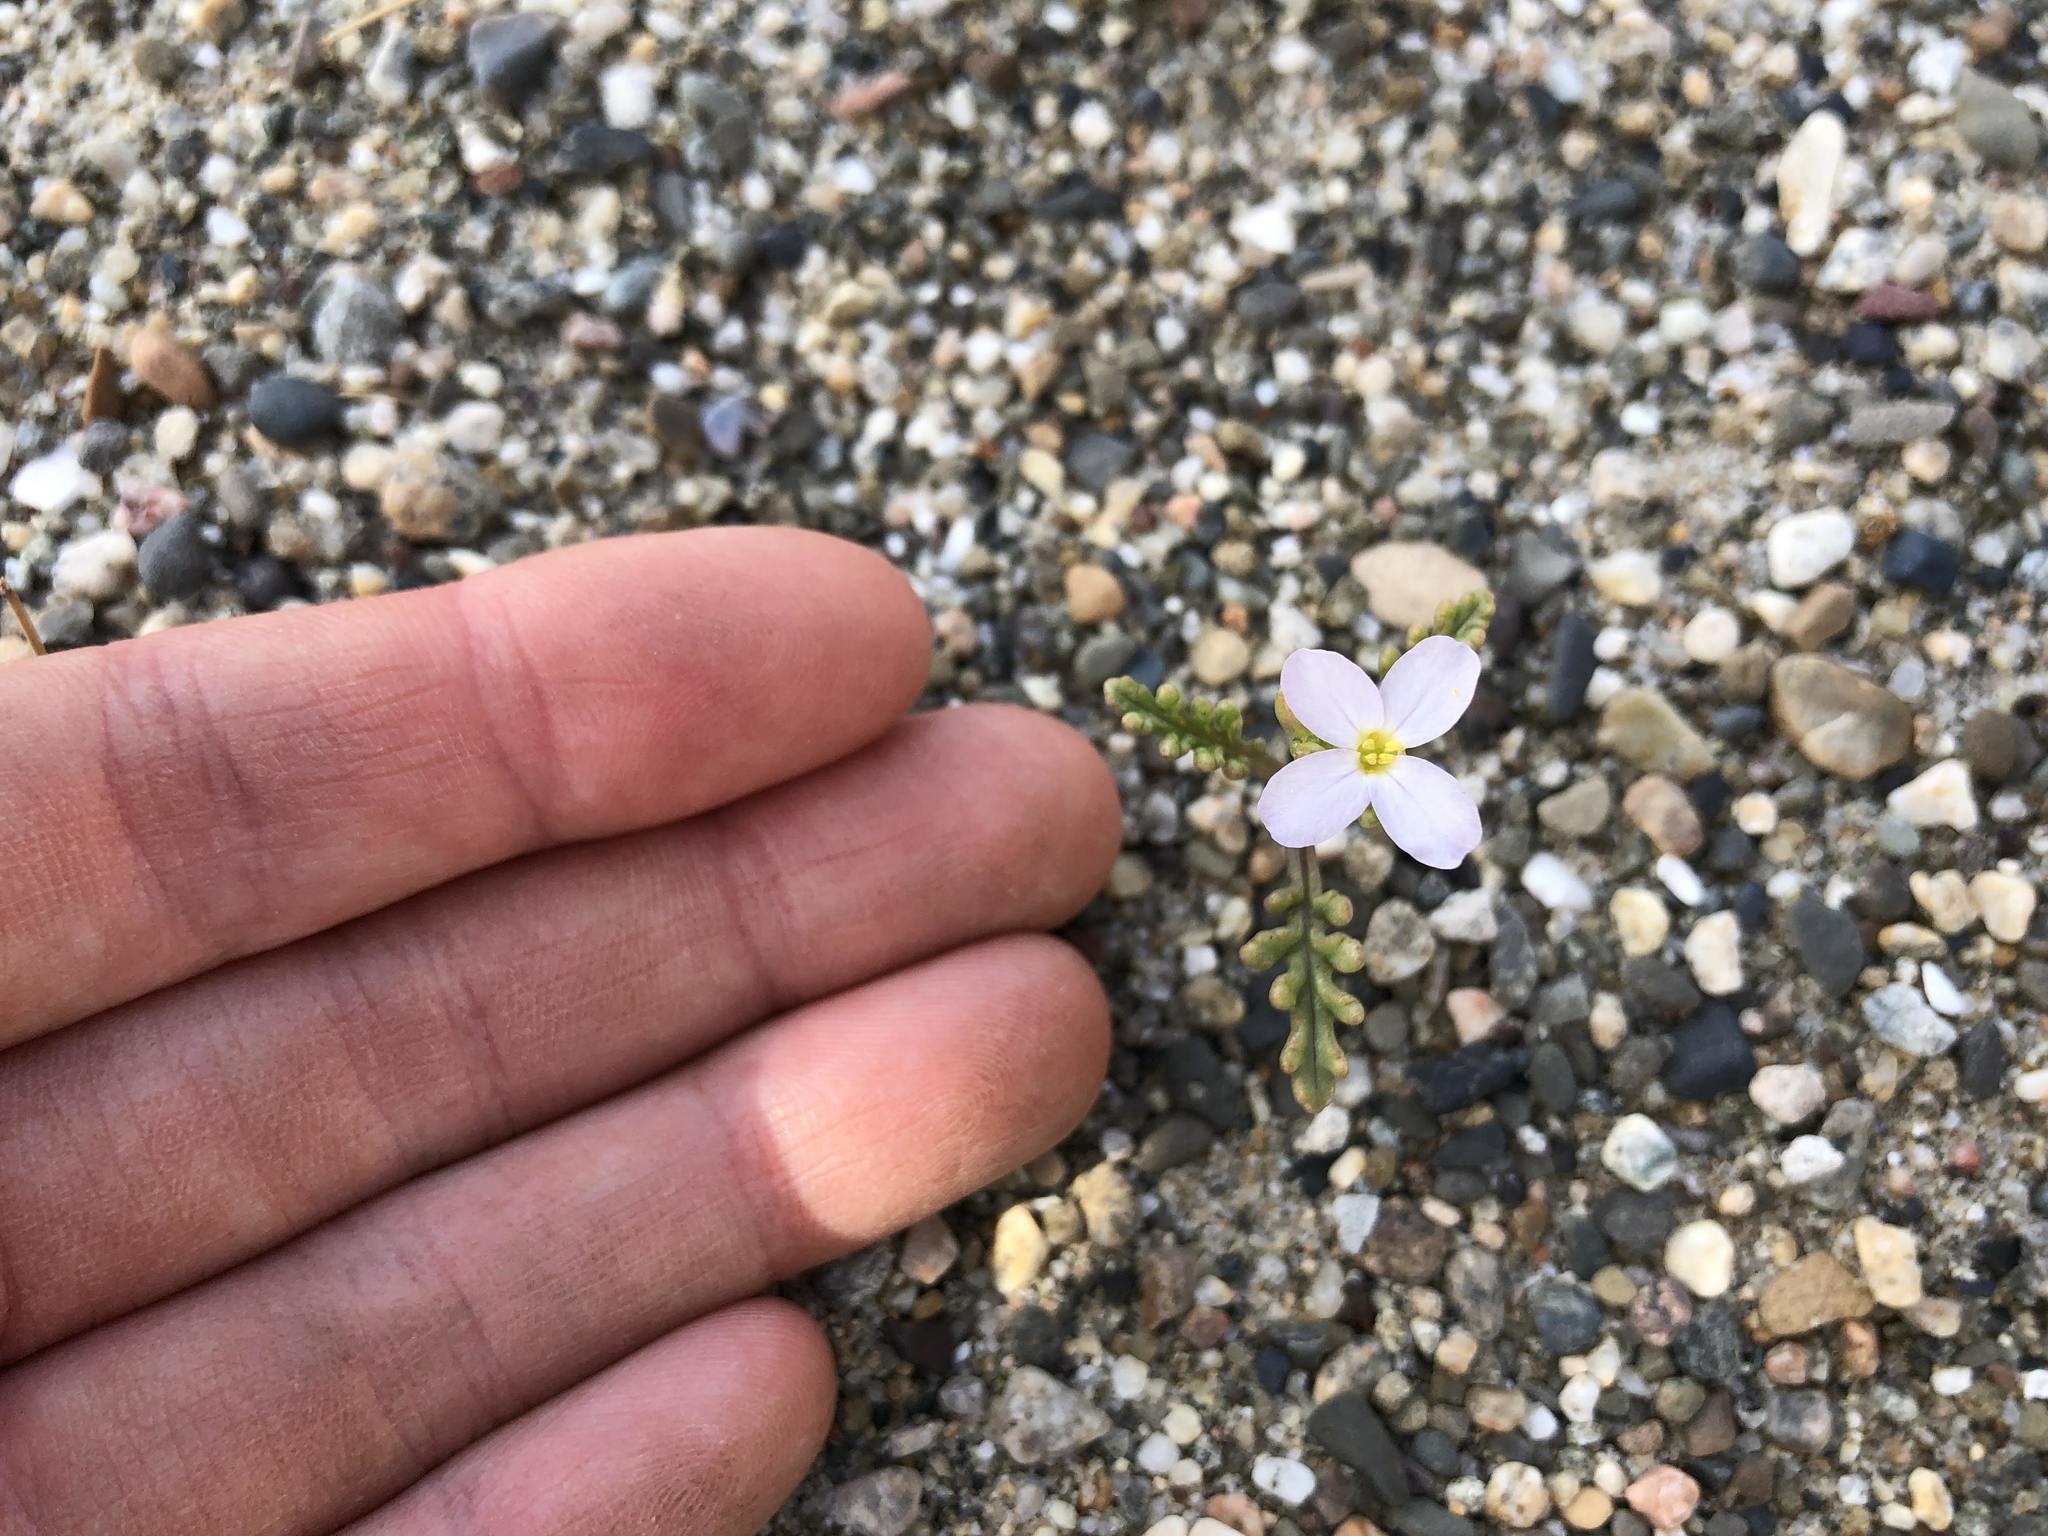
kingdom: Plantae
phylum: Tracheophyta
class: Magnoliopsida
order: Brassicales
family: Brassicaceae
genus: Cakile
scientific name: Cakile maritima
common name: Sea rocket
